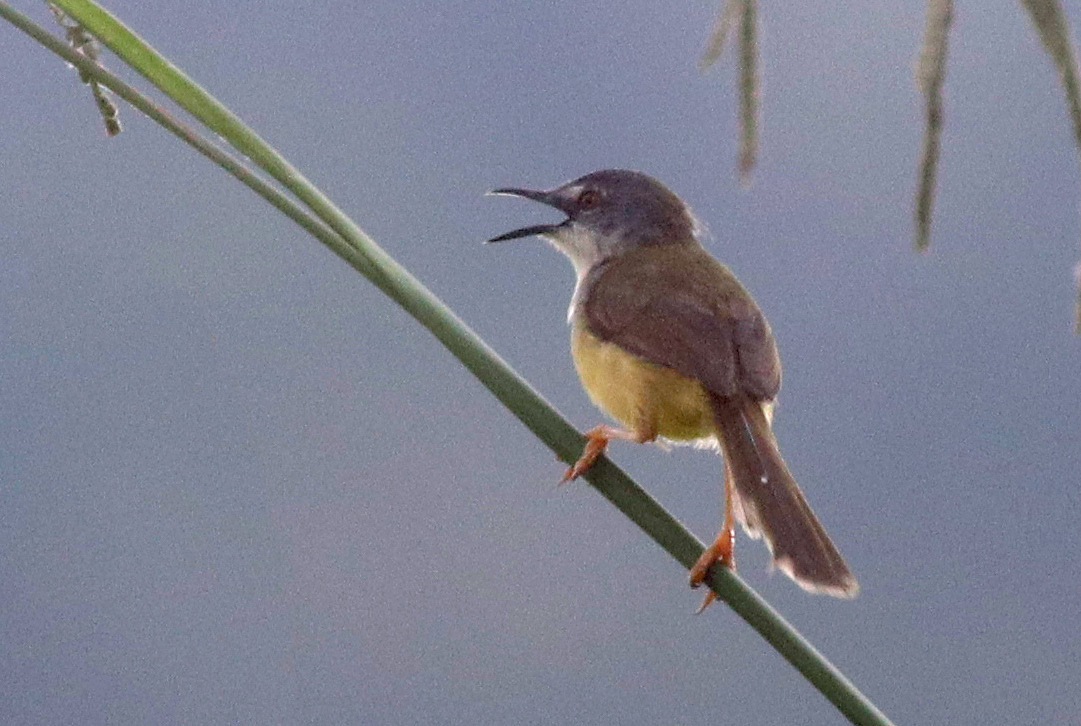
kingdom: Animalia
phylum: Chordata
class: Aves
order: Passeriformes
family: Cisticolidae
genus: Prinia
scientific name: Prinia flaviventris
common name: Yellow-bellied prinia
